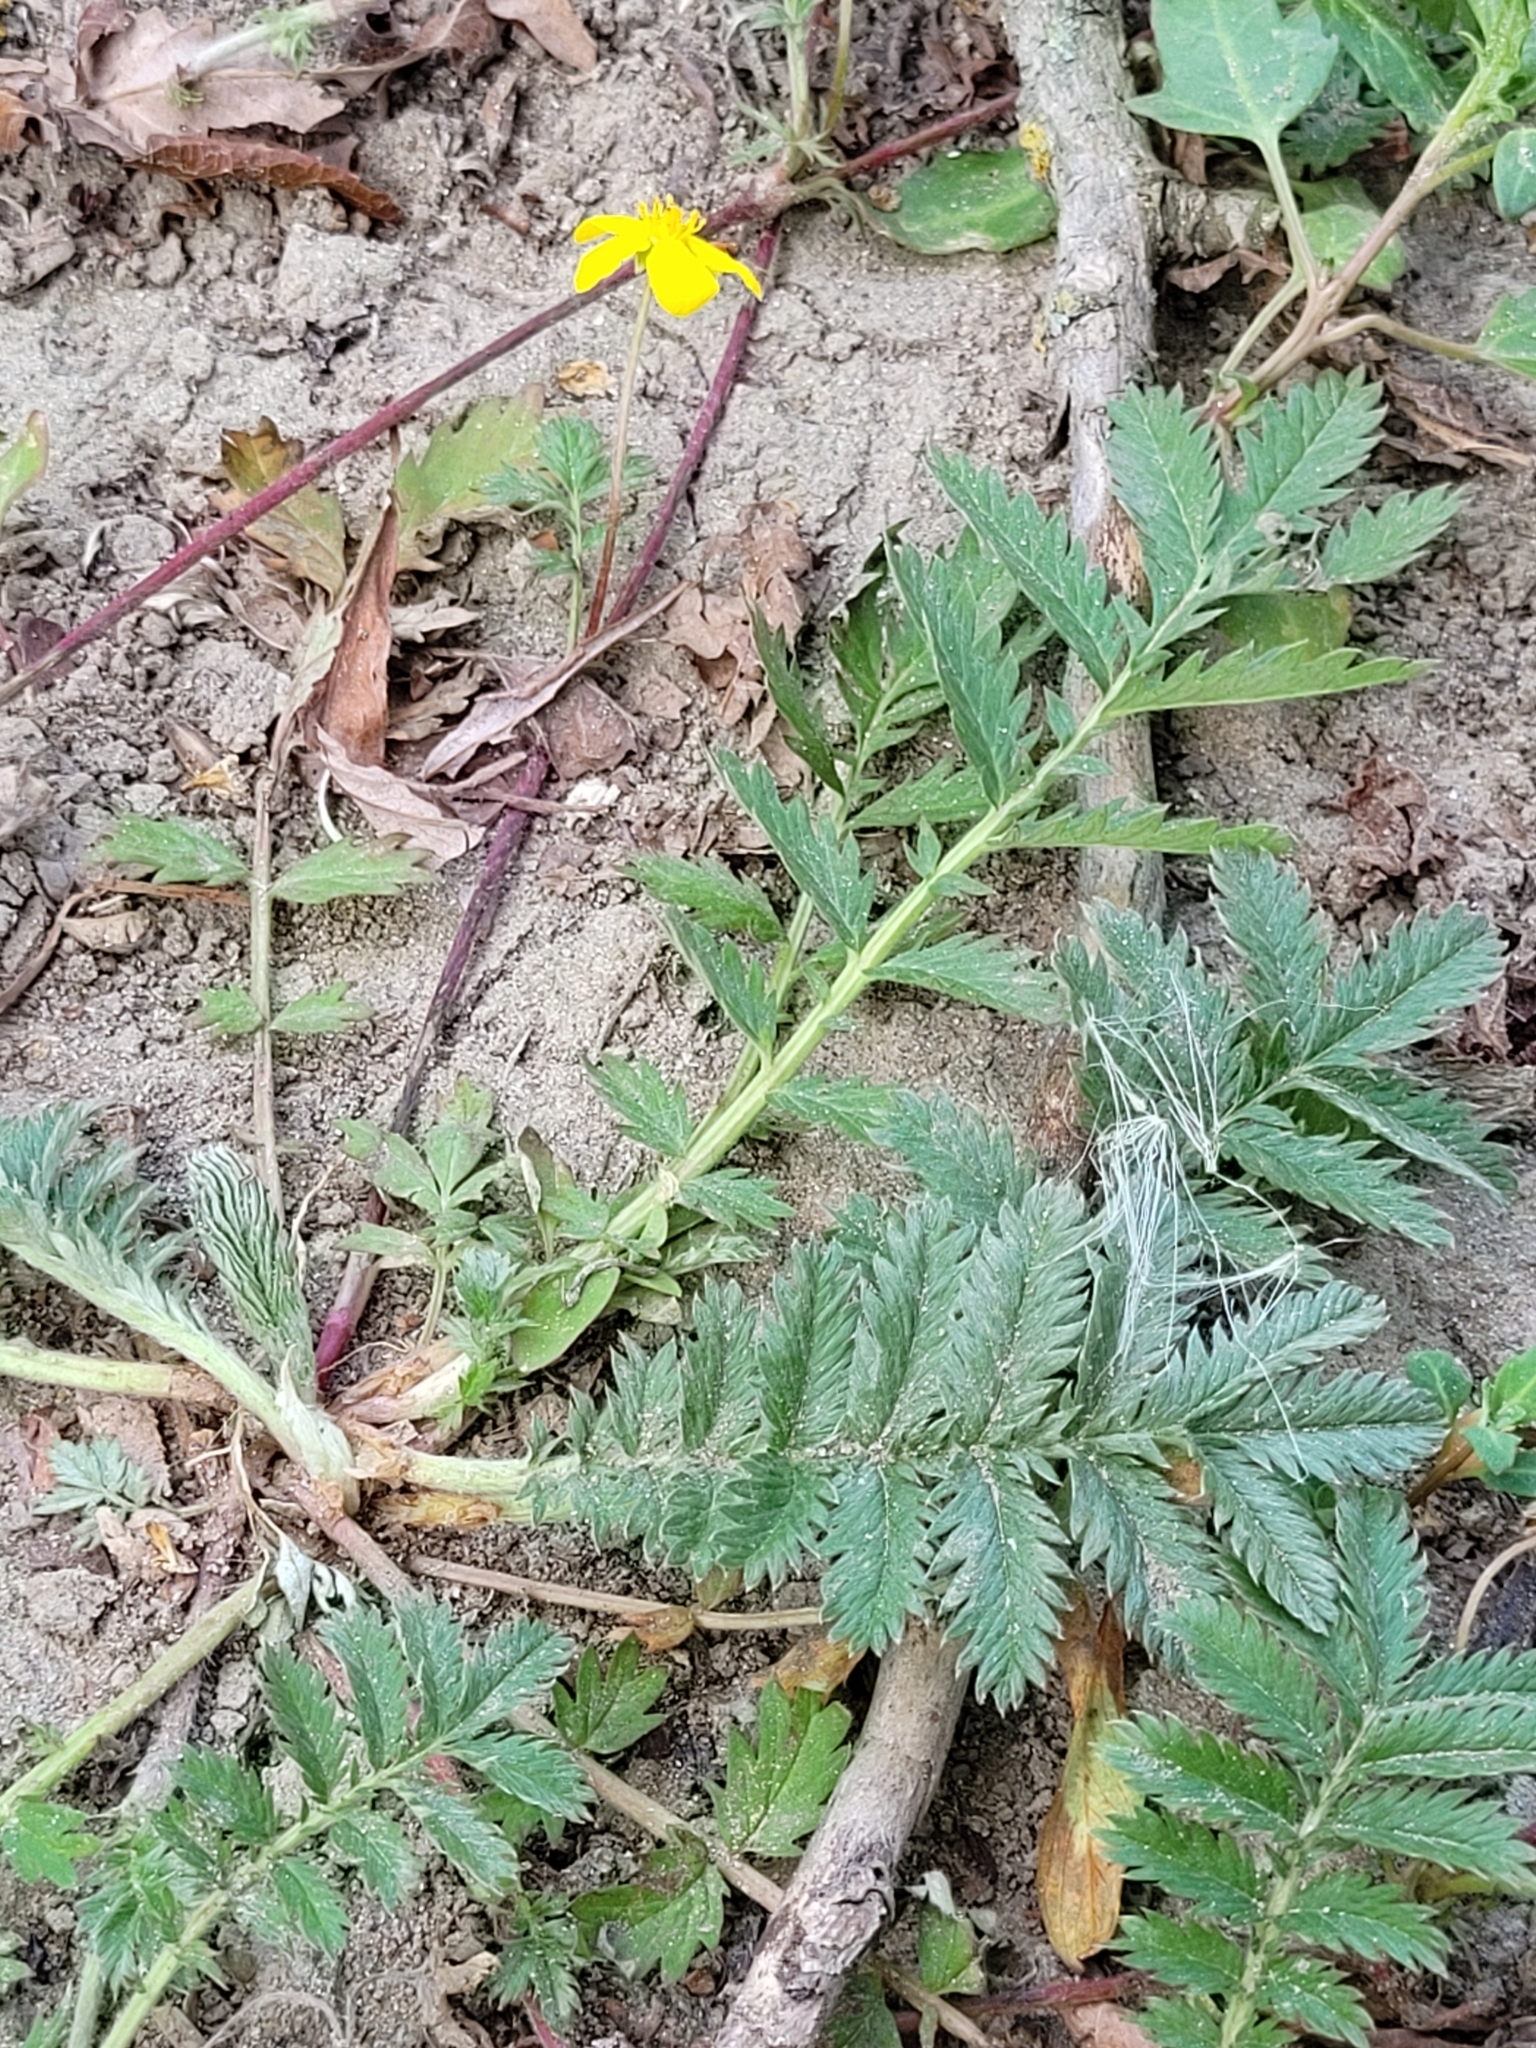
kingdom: Plantae
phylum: Tracheophyta
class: Magnoliopsida
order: Rosales
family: Rosaceae
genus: Argentina
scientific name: Argentina anserina
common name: Common silverweed
